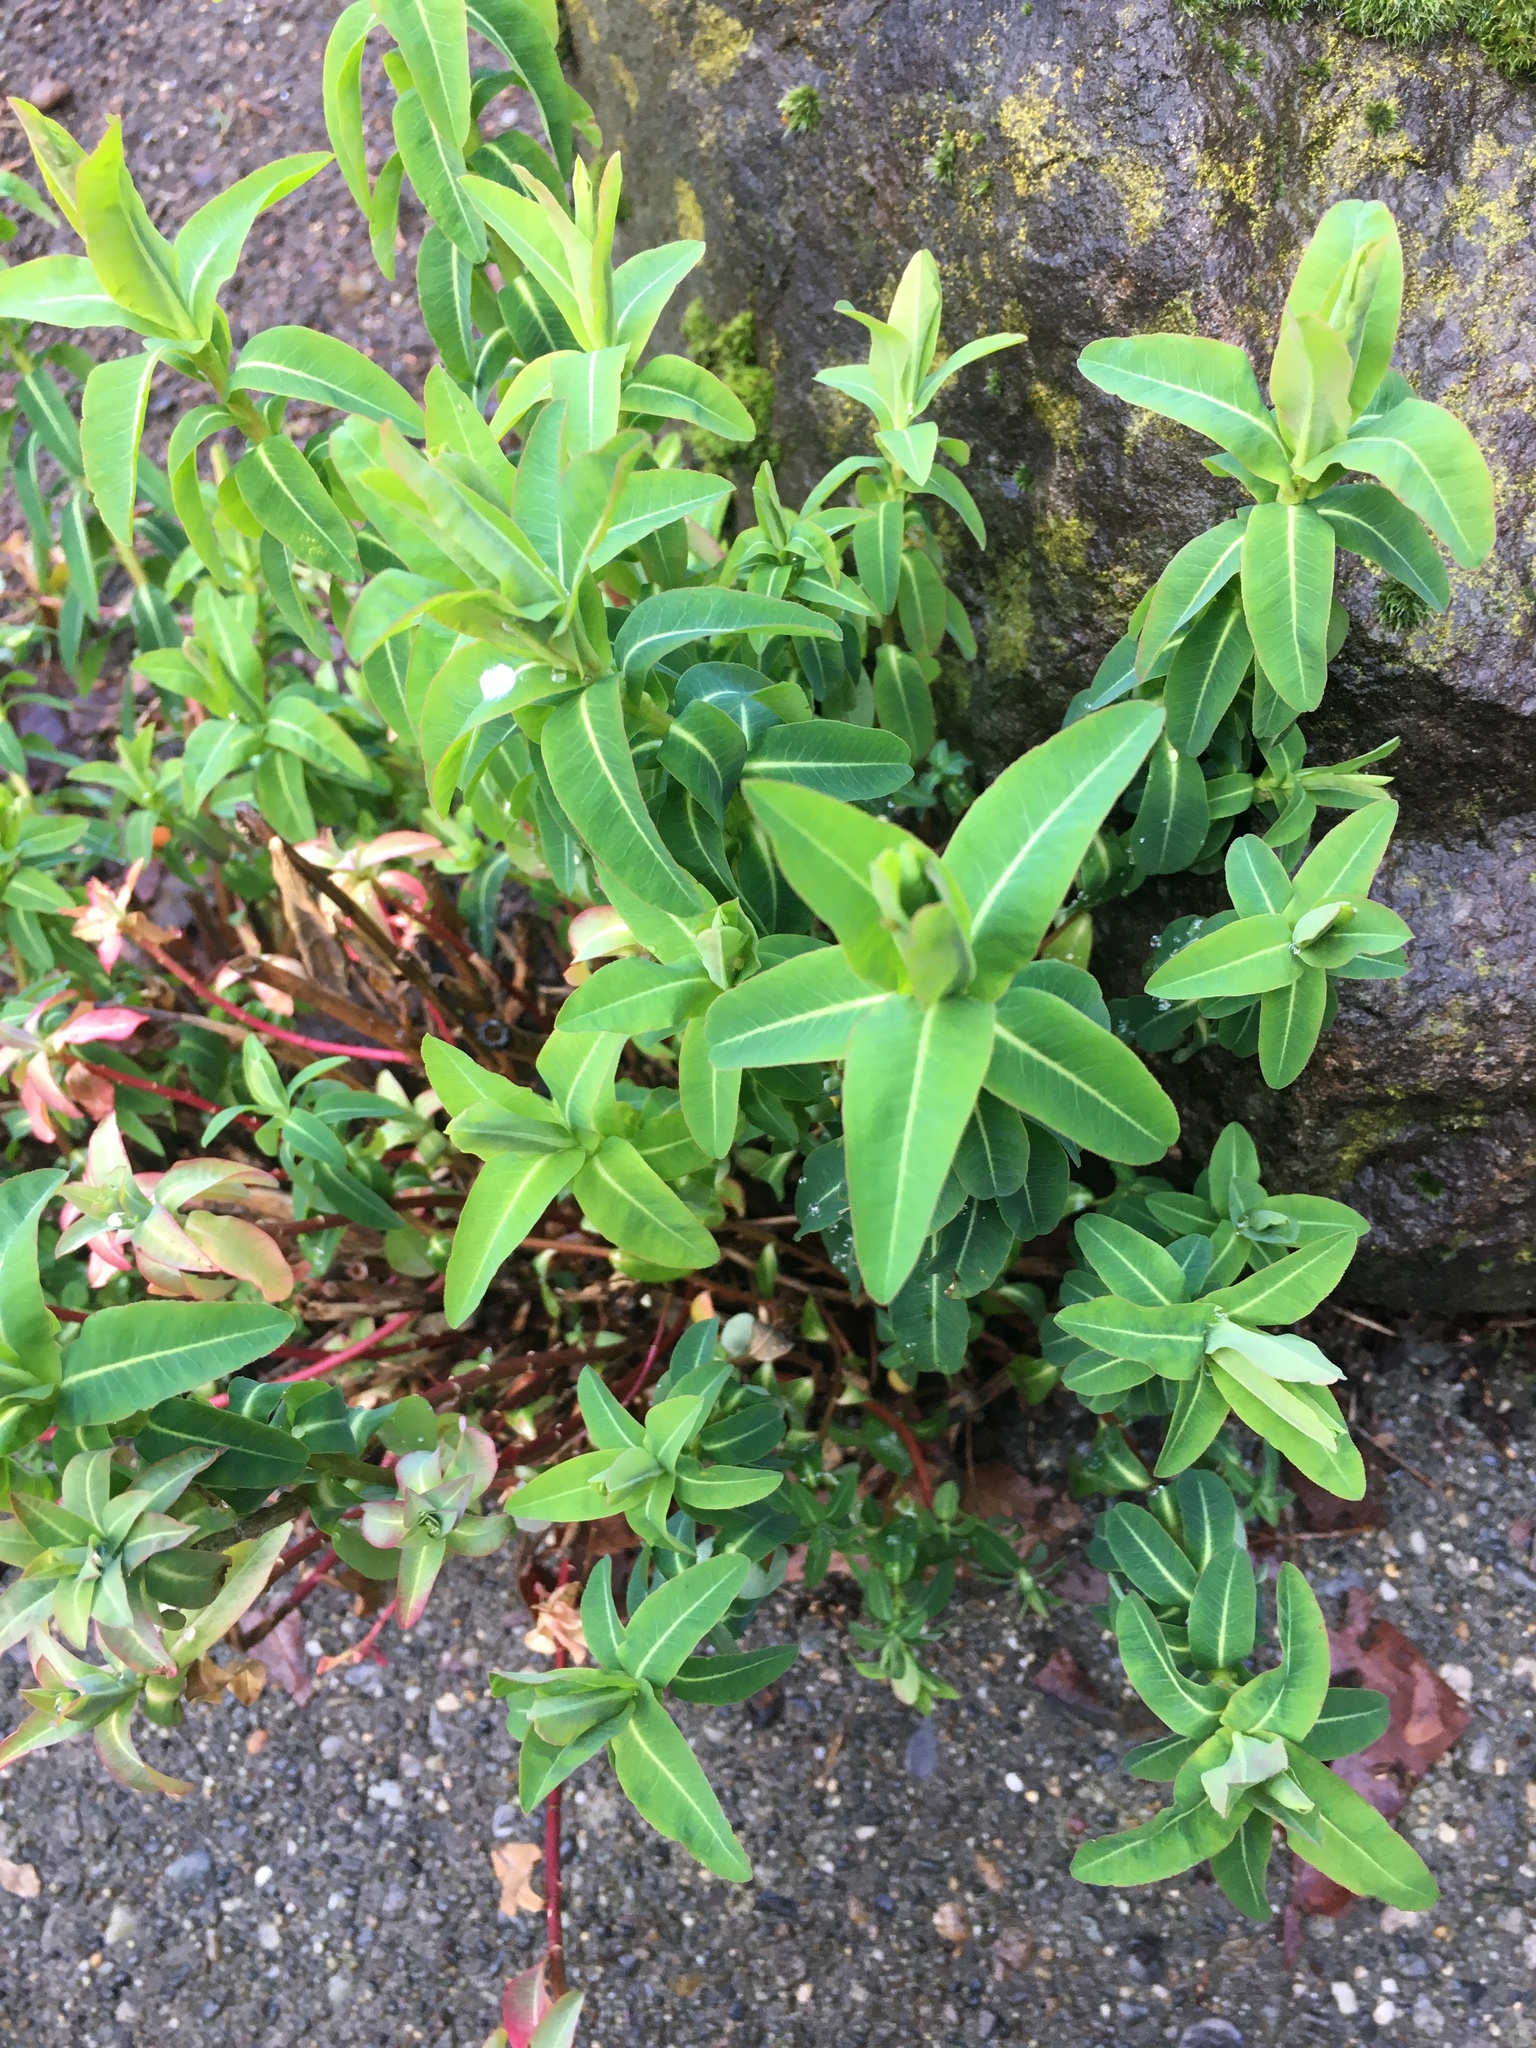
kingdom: Plantae
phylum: Tracheophyta
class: Magnoliopsida
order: Malpighiales
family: Euphorbiaceae
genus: Euphorbia
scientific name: Euphorbia oblongata
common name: Balkan spurge
